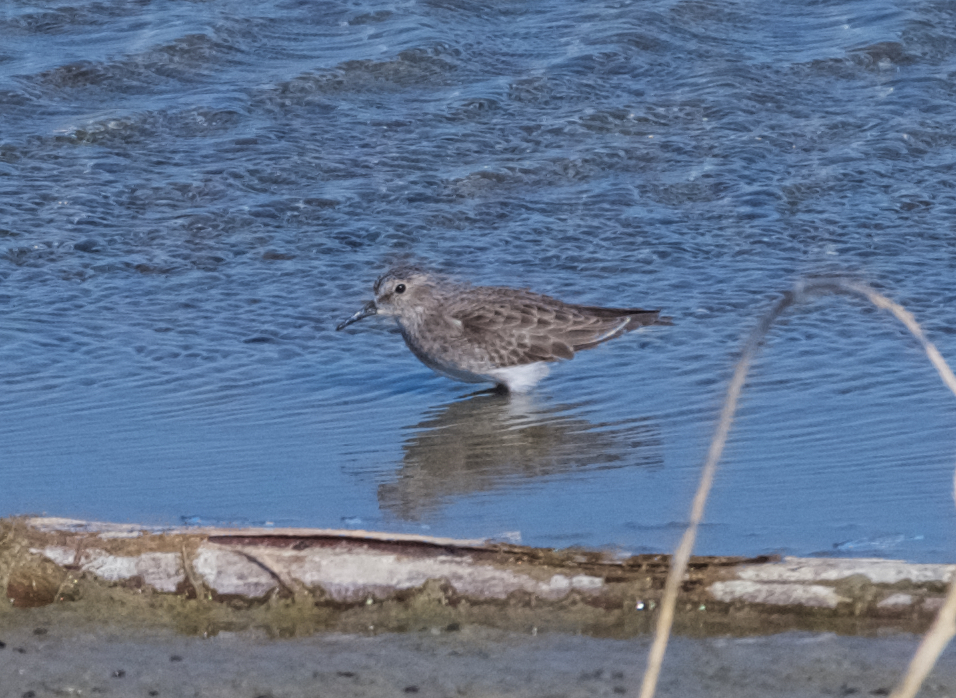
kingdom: Animalia
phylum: Chordata
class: Aves
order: Charadriiformes
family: Scolopacidae
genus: Calidris
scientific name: Calidris minutilla
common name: Least sandpiper
